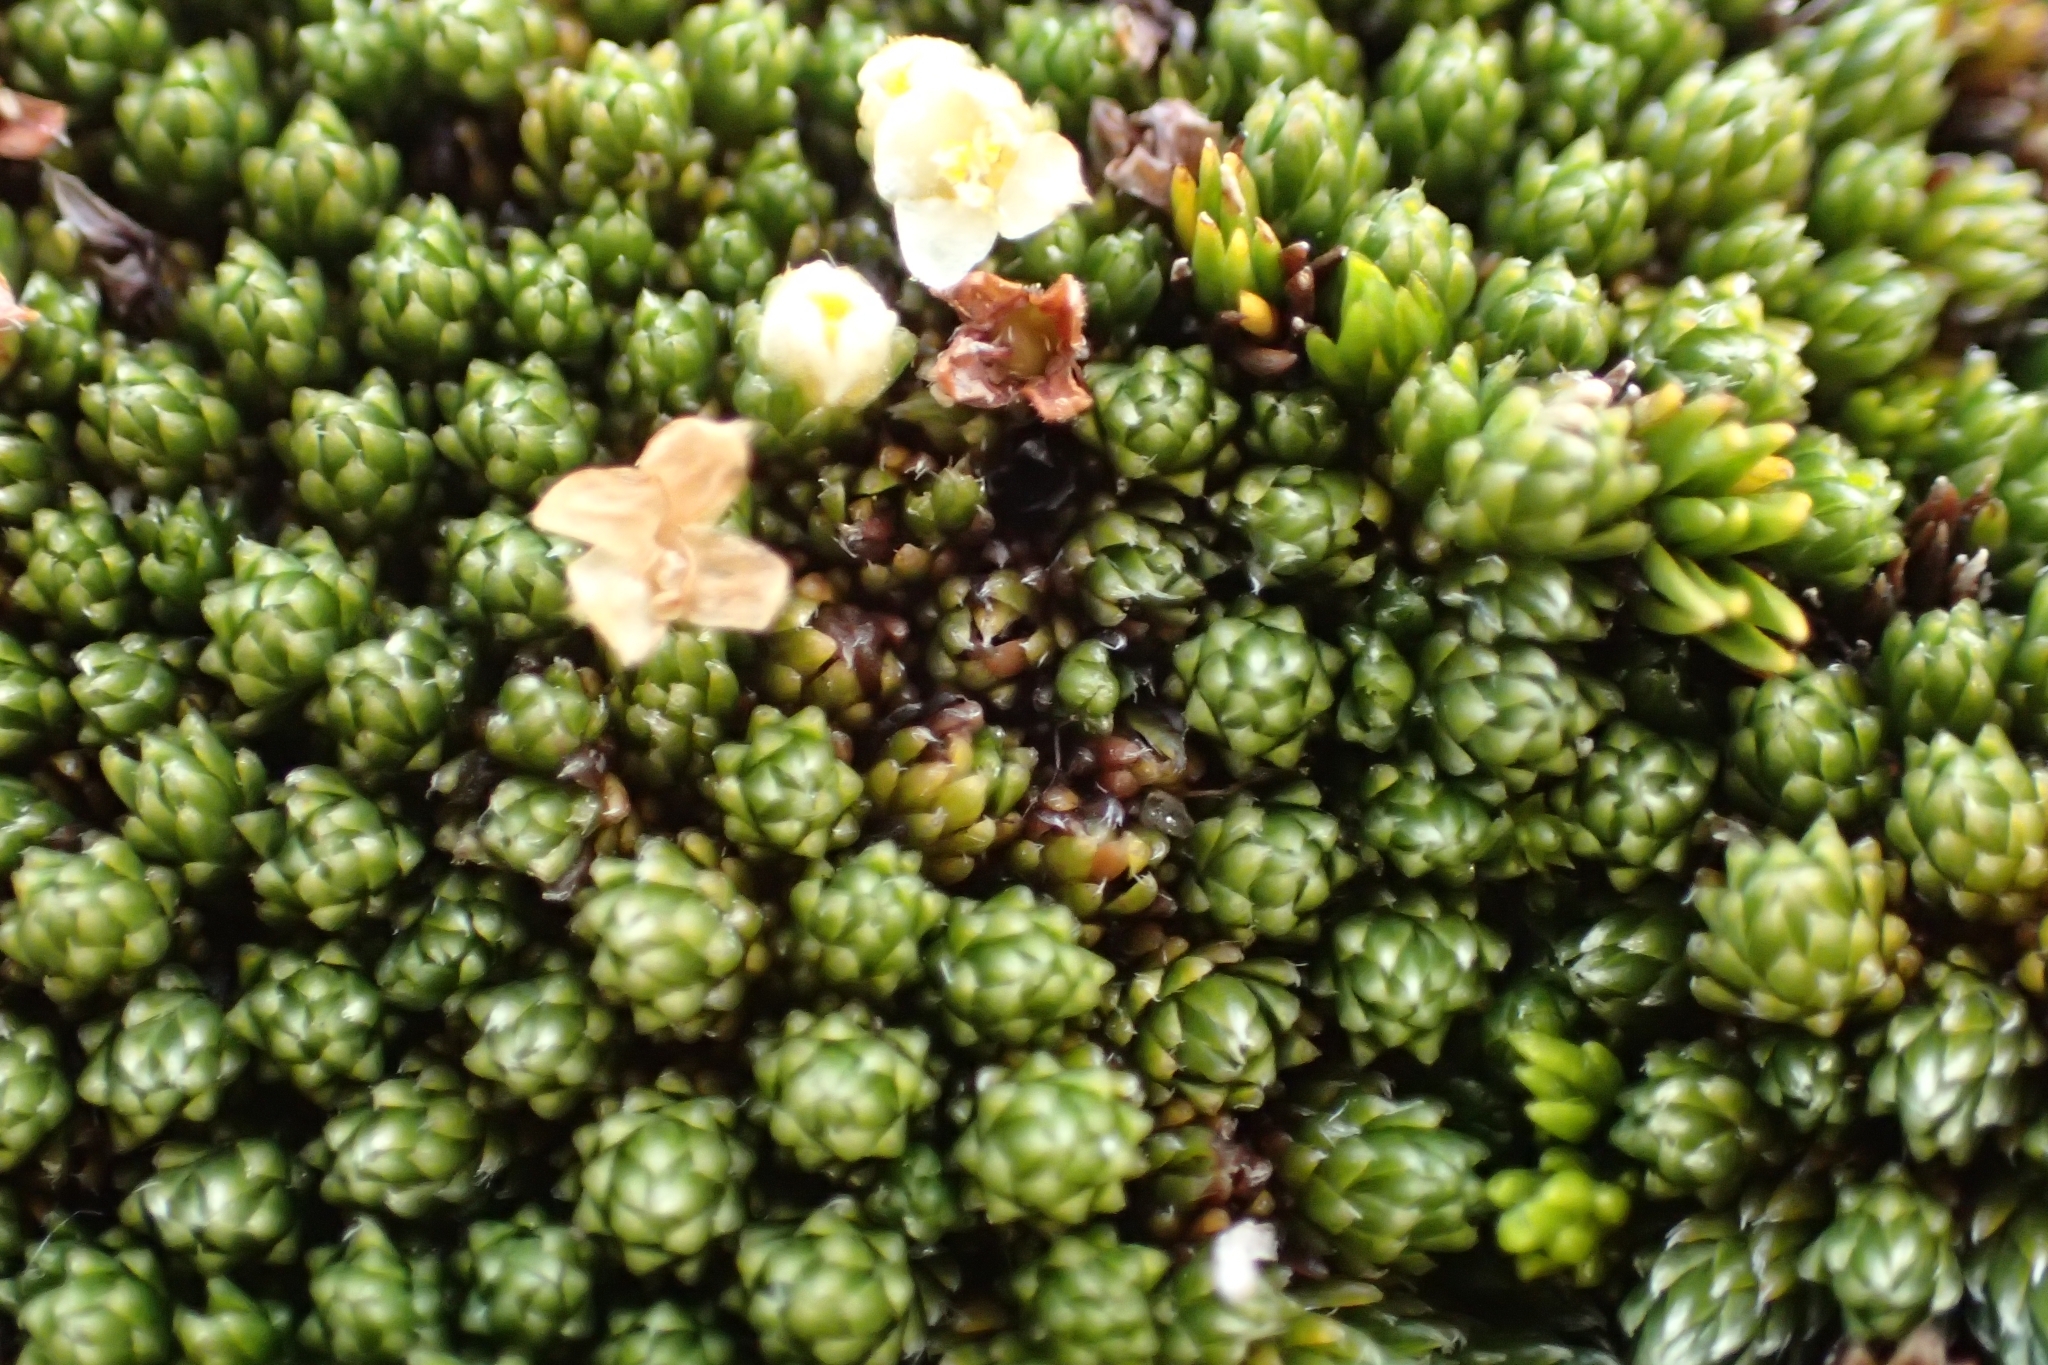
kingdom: Plantae
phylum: Tracheophyta
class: Magnoliopsida
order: Malvales
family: Thymelaeaceae
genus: Kelleria
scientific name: Kelleria croizatii
